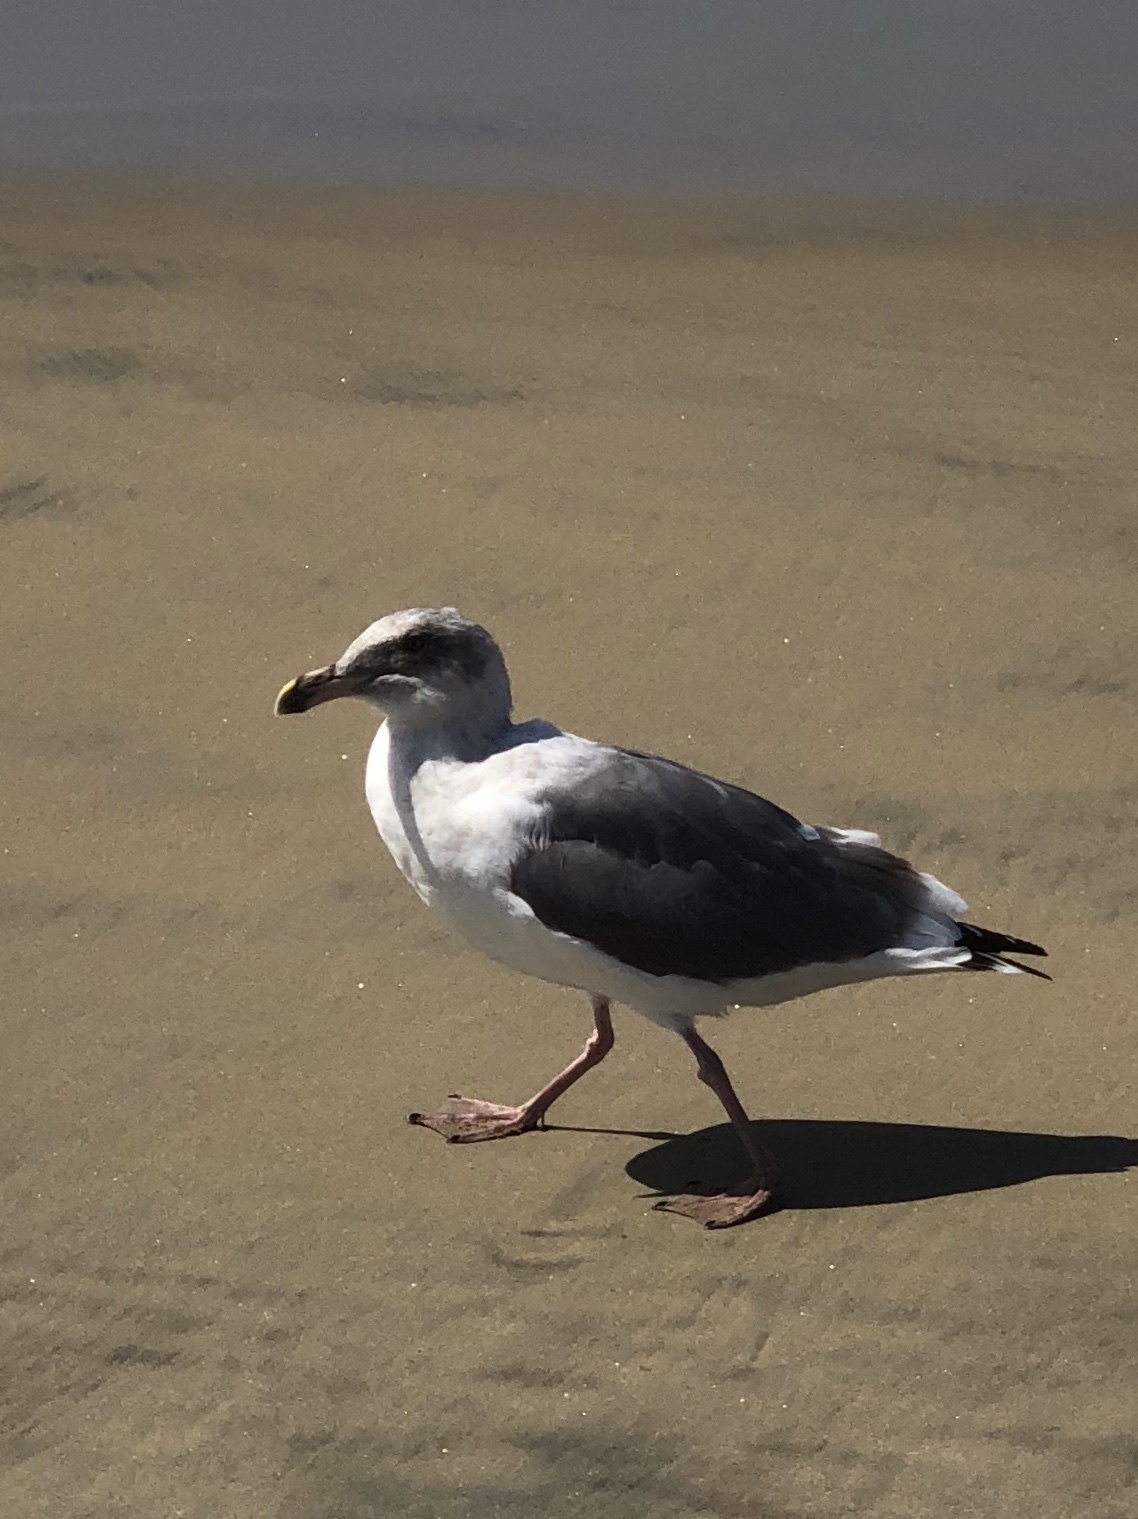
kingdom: Animalia
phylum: Chordata
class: Aves
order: Charadriiformes
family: Laridae
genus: Larus
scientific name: Larus occidentalis
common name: Western gull
